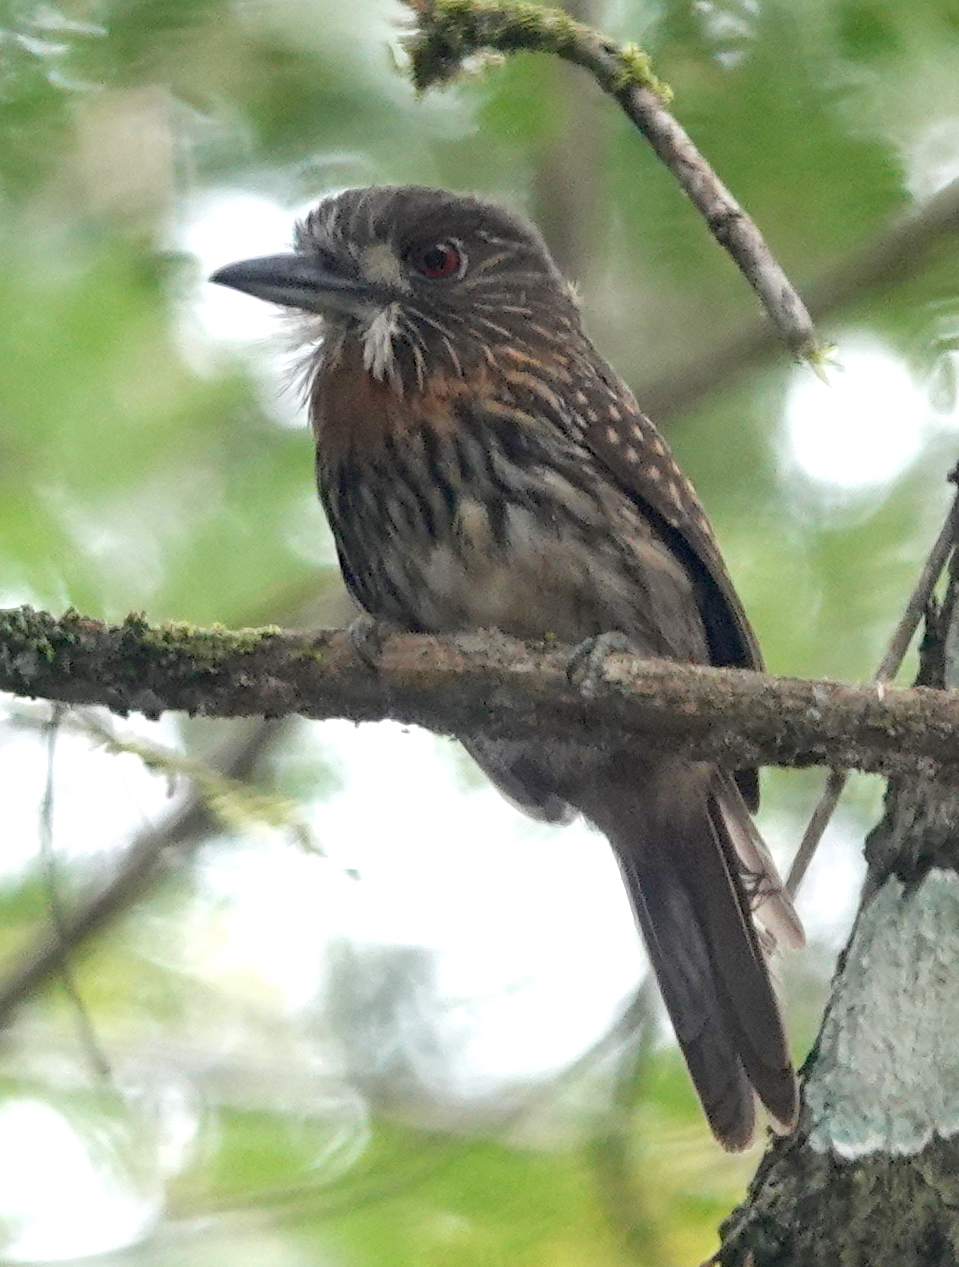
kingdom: Animalia
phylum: Chordata
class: Aves
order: Piciformes
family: Bucconidae
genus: Malacoptila
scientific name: Malacoptila panamensis
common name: White-whiskered puffbird
